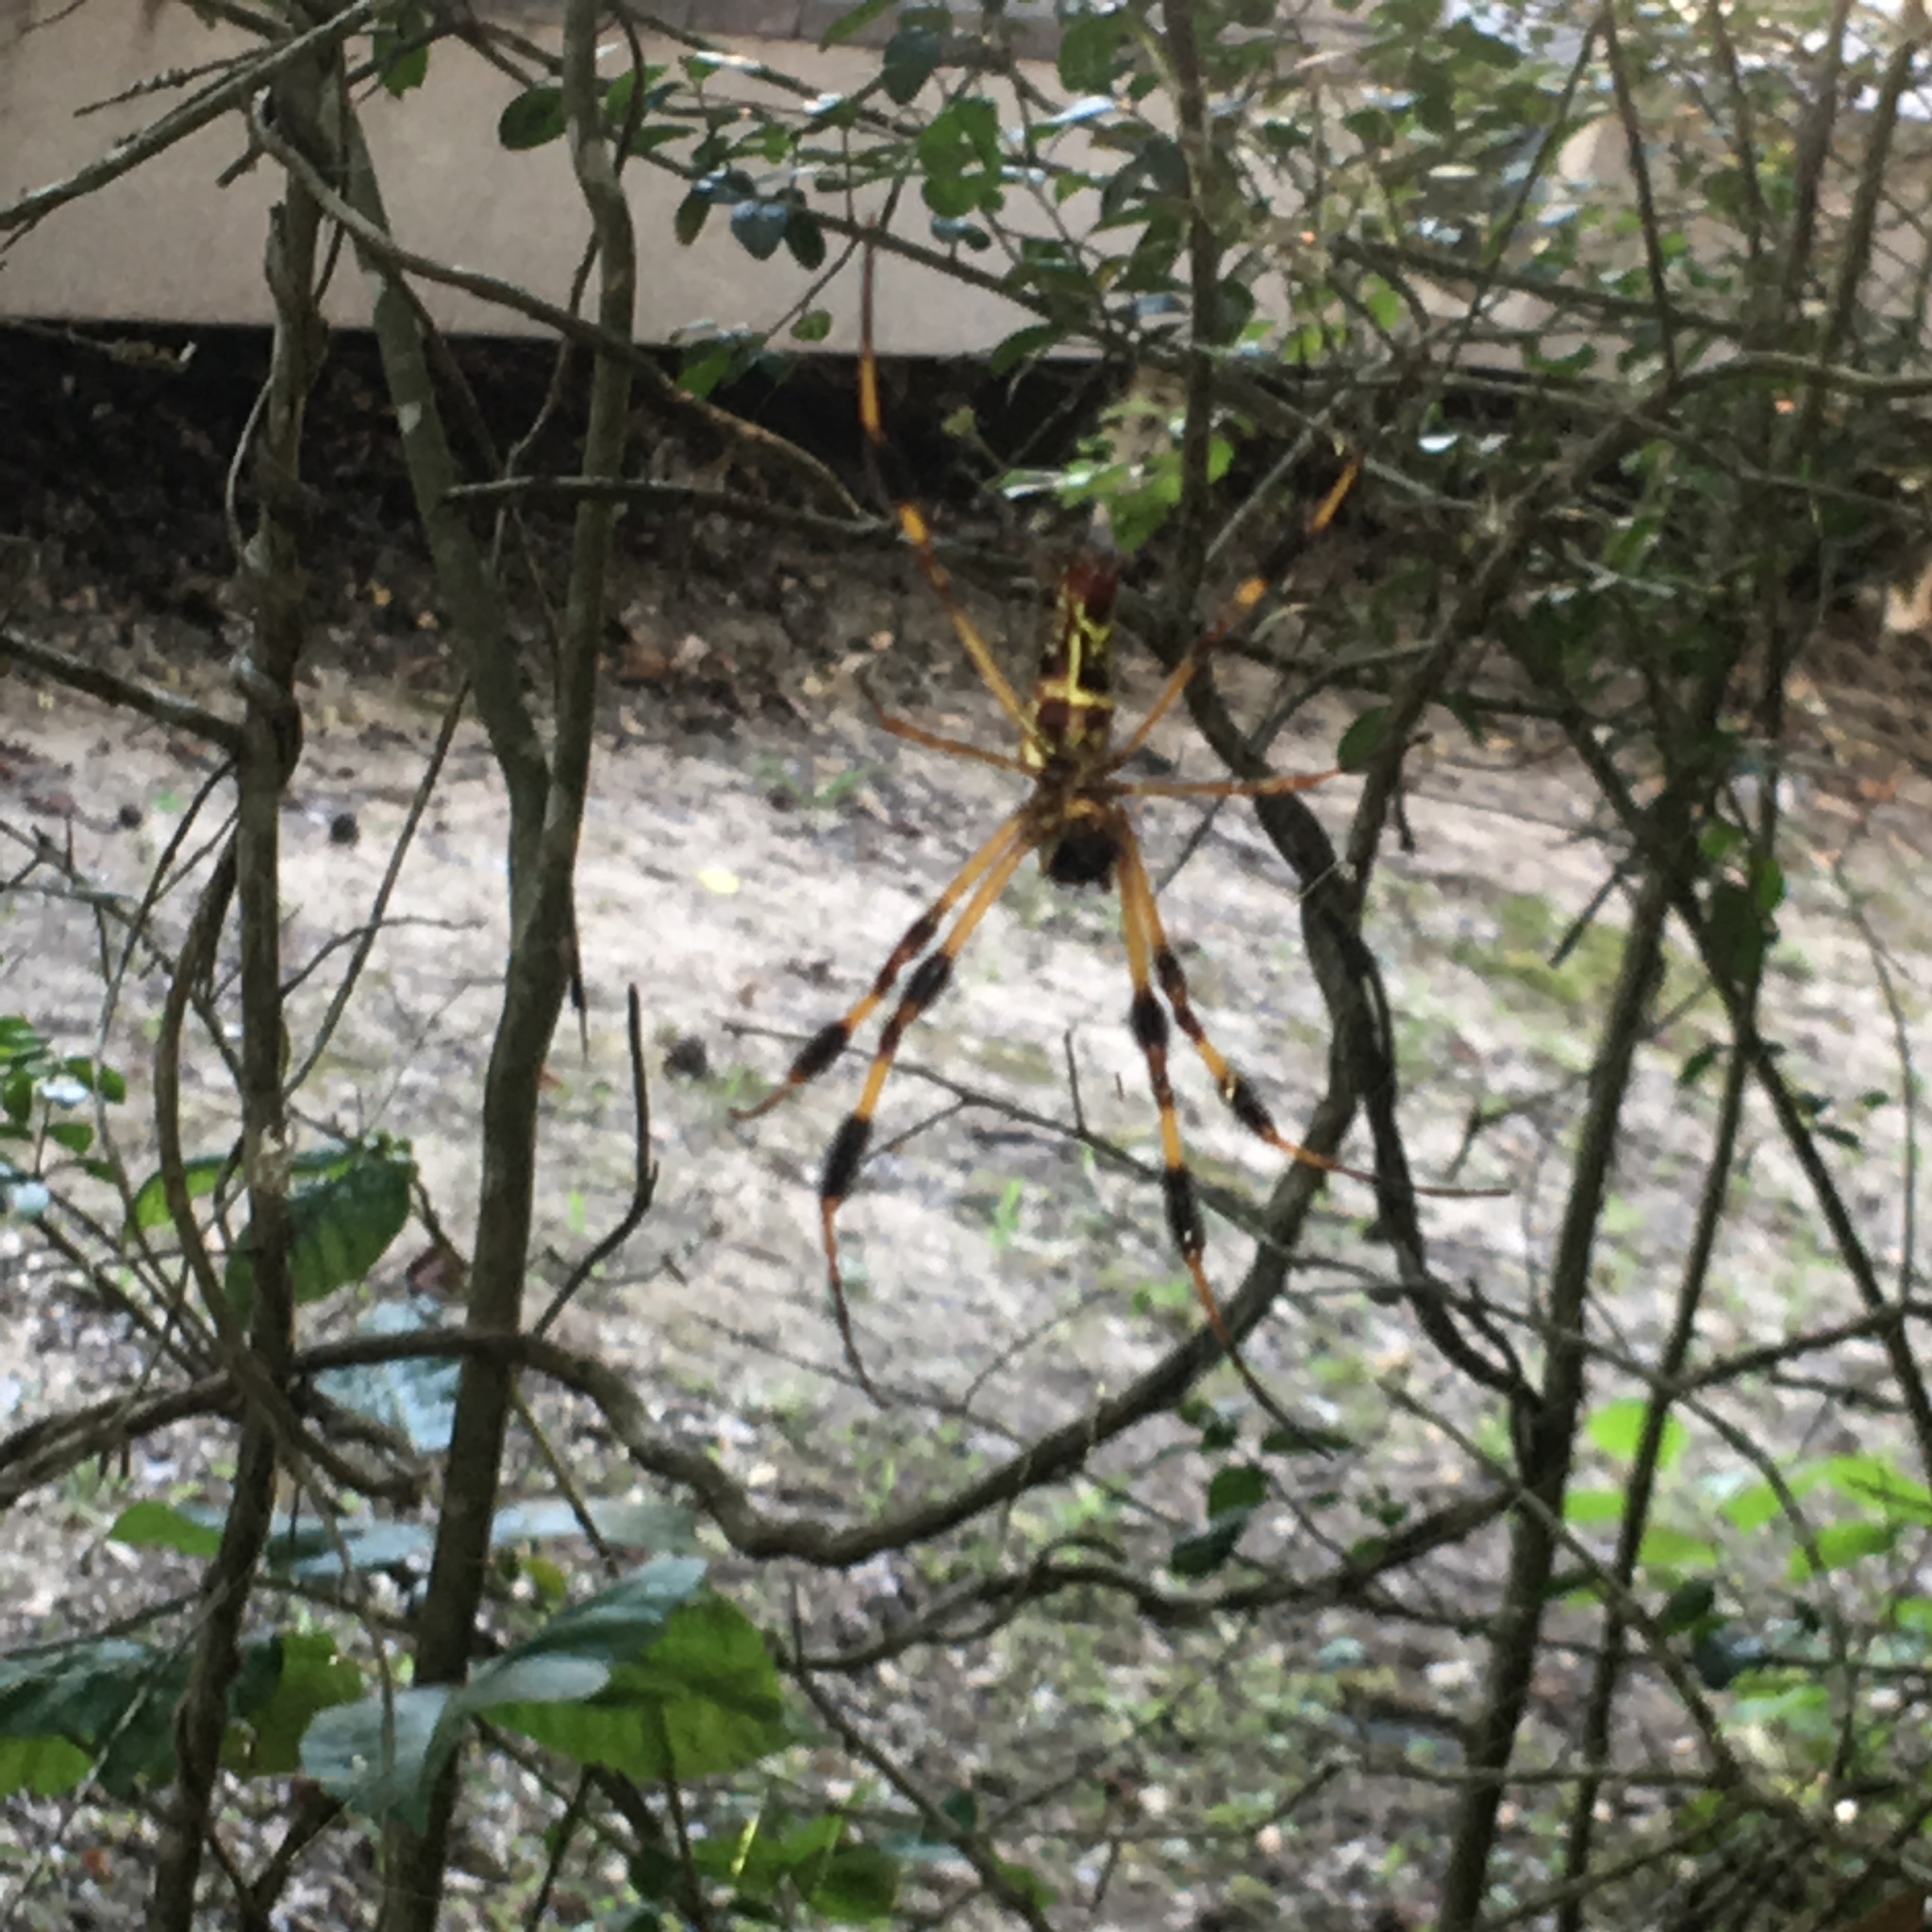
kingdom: Animalia
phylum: Arthropoda
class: Arachnida
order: Araneae
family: Araneidae
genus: Trichonephila
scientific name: Trichonephila clavipes
